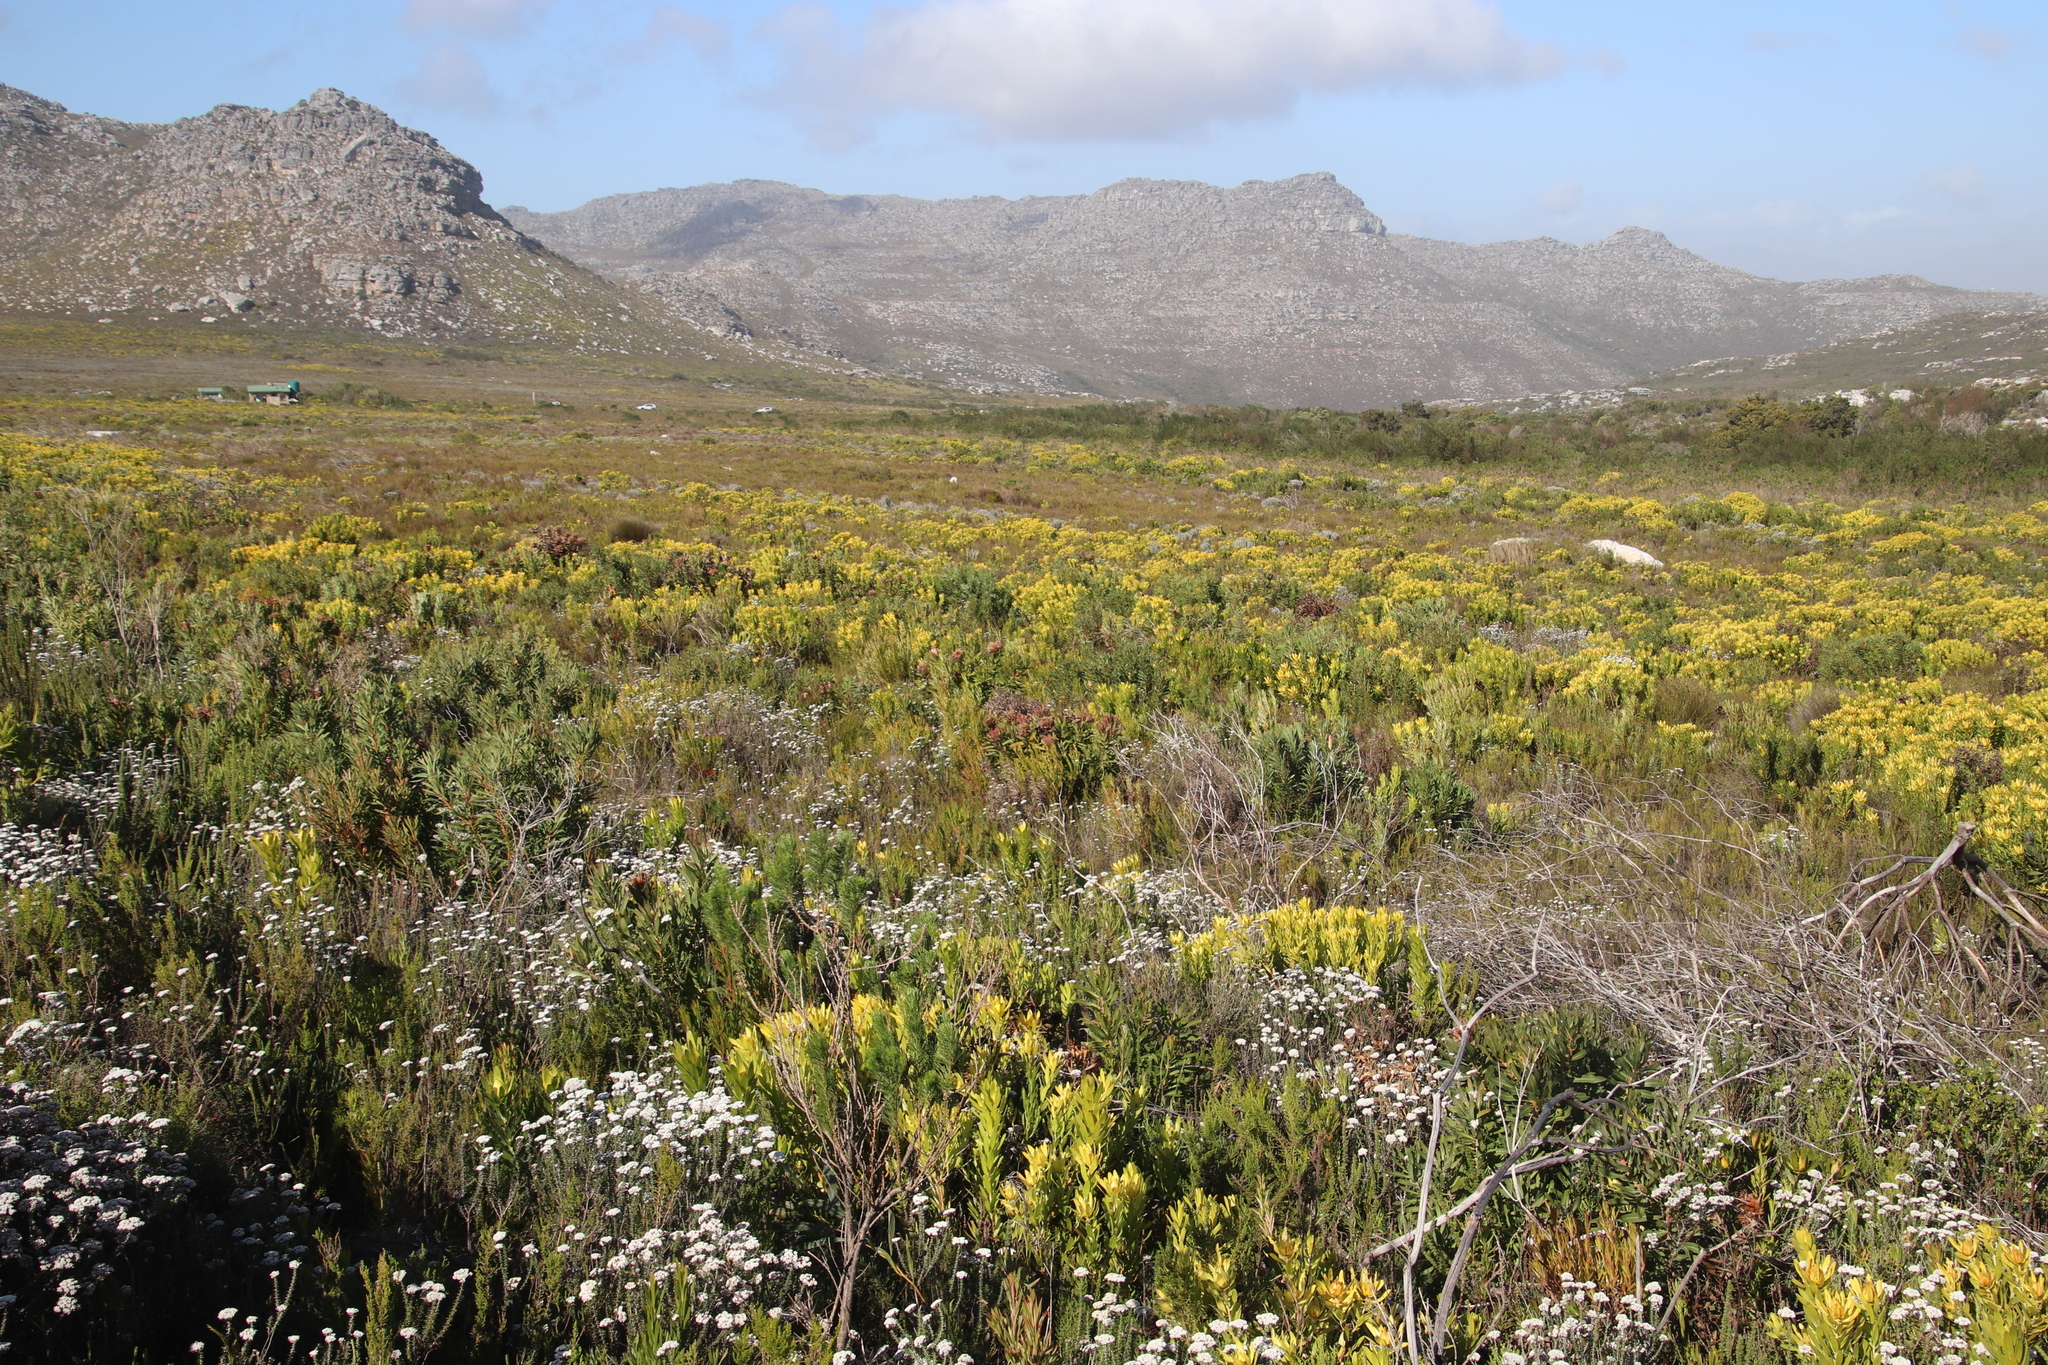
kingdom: Plantae
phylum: Tracheophyta
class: Magnoliopsida
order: Proteales
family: Proteaceae
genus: Leucadendron
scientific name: Leucadendron laureolum
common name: Golden sunshinebush
